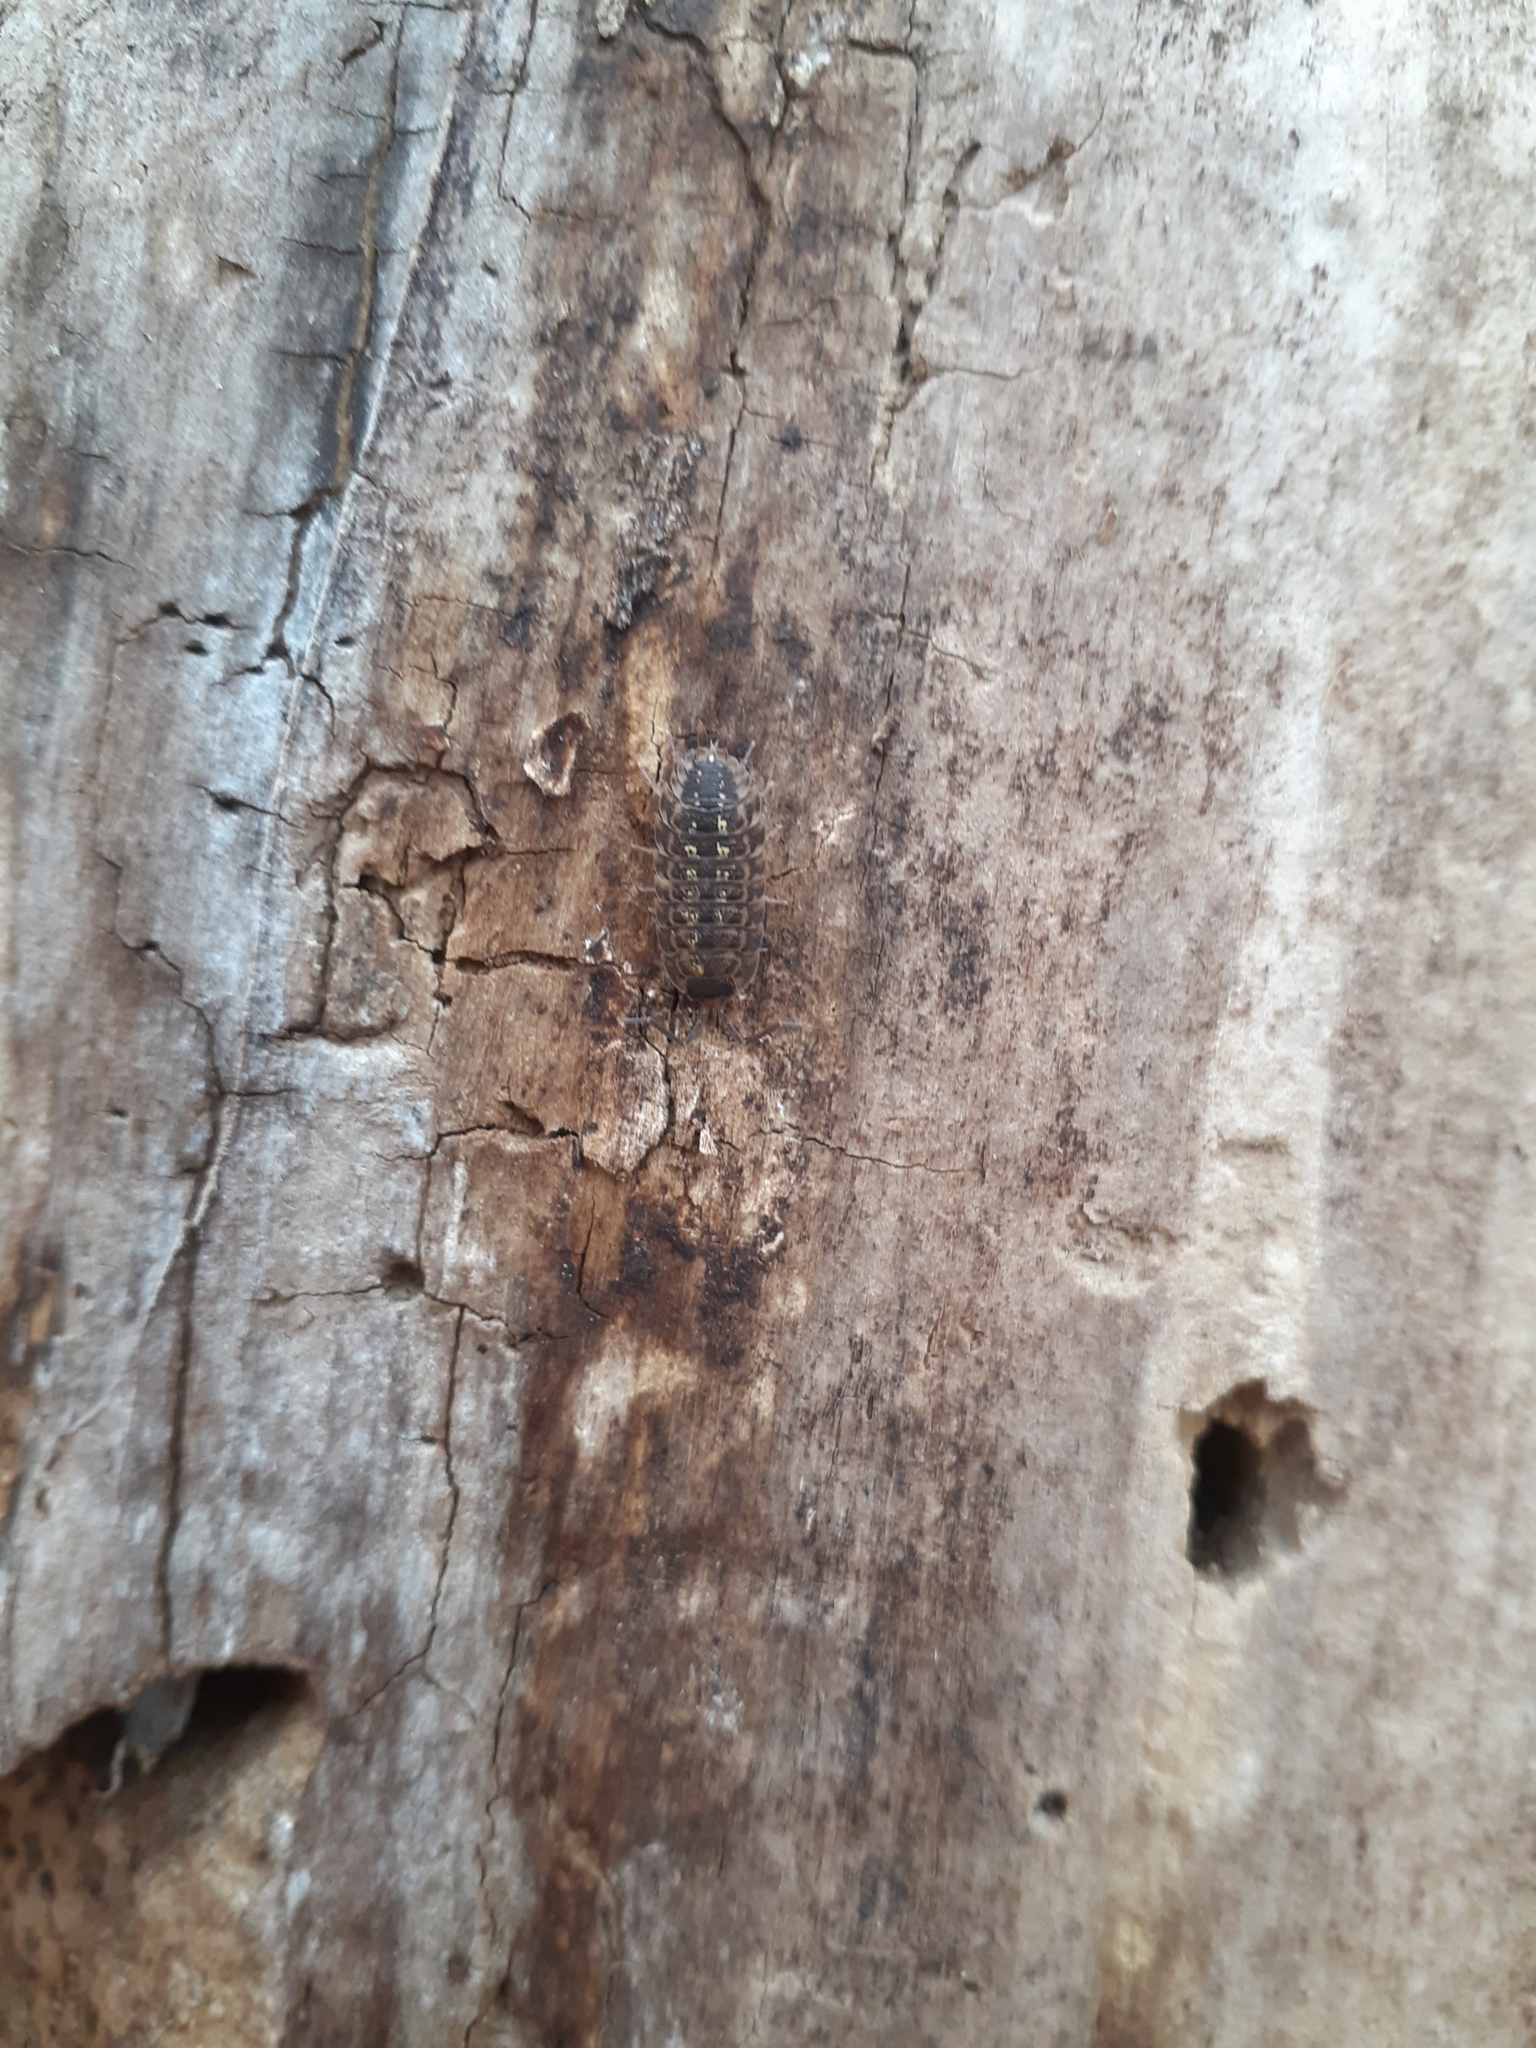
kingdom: Animalia
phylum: Arthropoda
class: Malacostraca
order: Isopoda
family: Porcellionidae
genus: Porcellio
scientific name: Porcellio spinicornis
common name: Painted woodlouse
